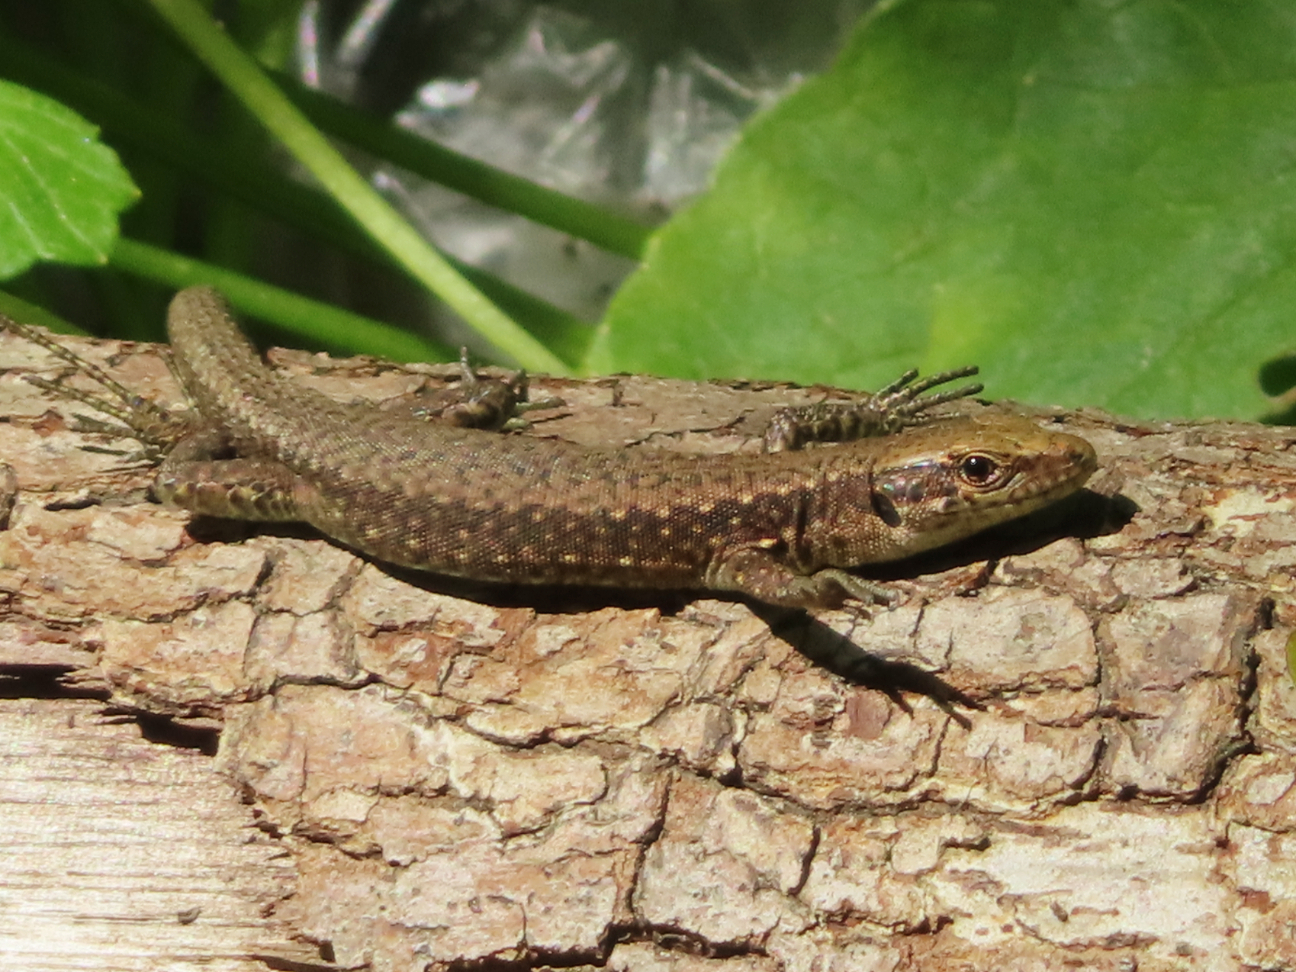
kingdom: Animalia
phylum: Chordata
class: Squamata
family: Lacertidae
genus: Darevskia
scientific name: Darevskia mixta
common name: Ajarian lizard
